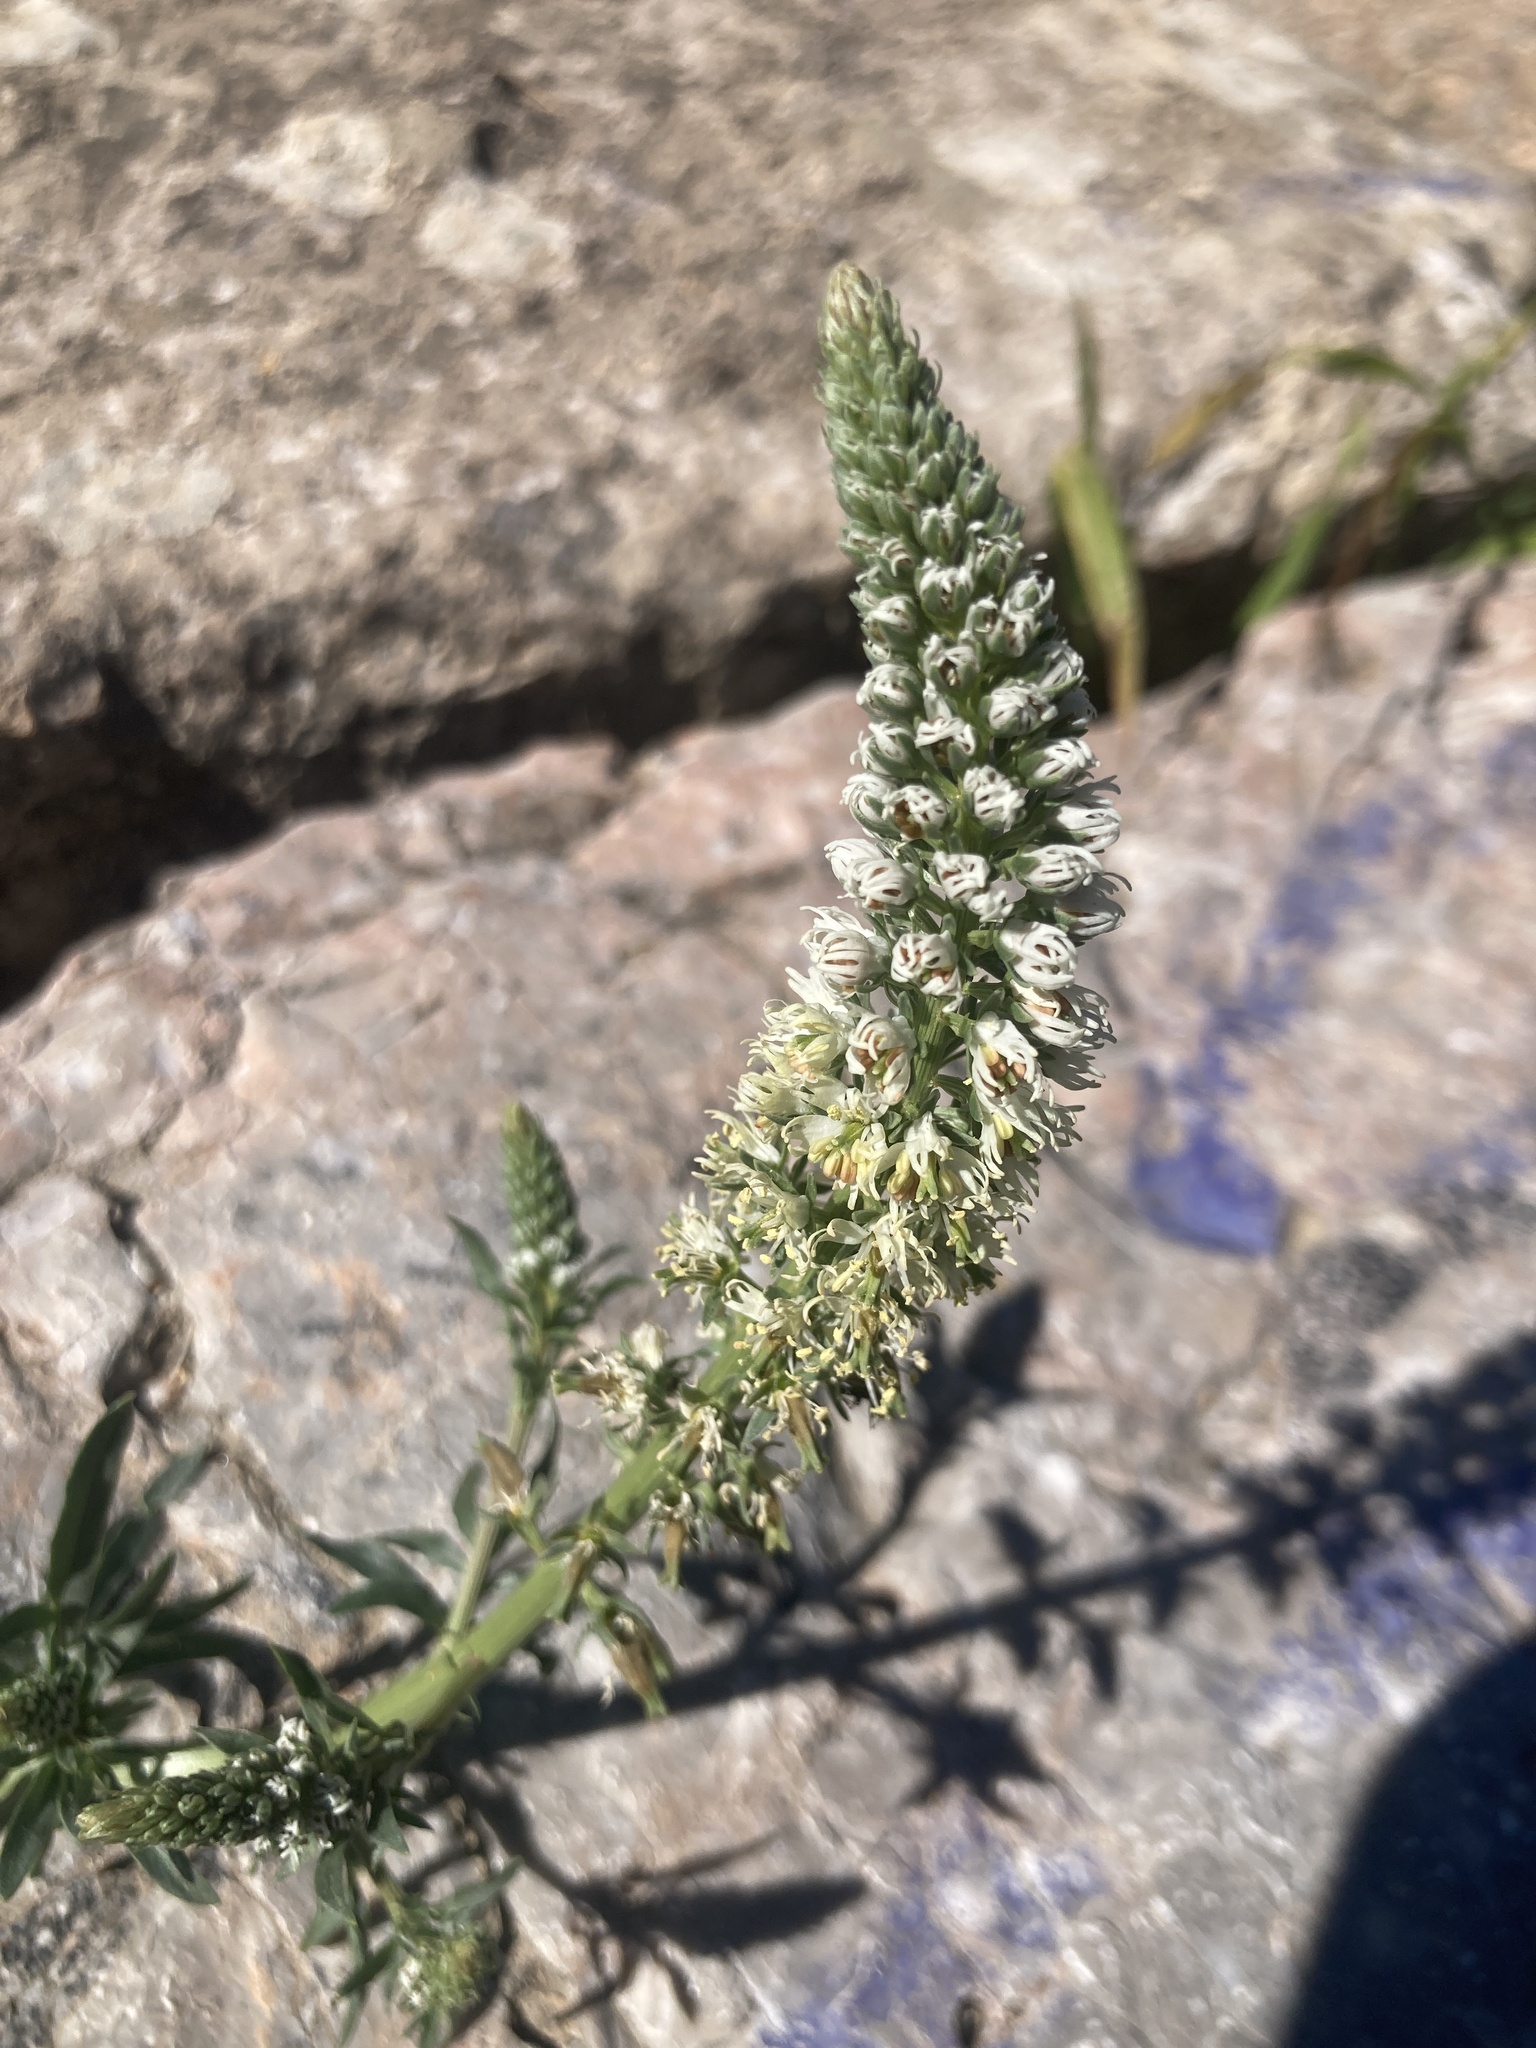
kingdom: Plantae
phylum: Tracheophyta
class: Magnoliopsida
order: Brassicales
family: Resedaceae
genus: Reseda
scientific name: Reseda alba
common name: White mignonette
